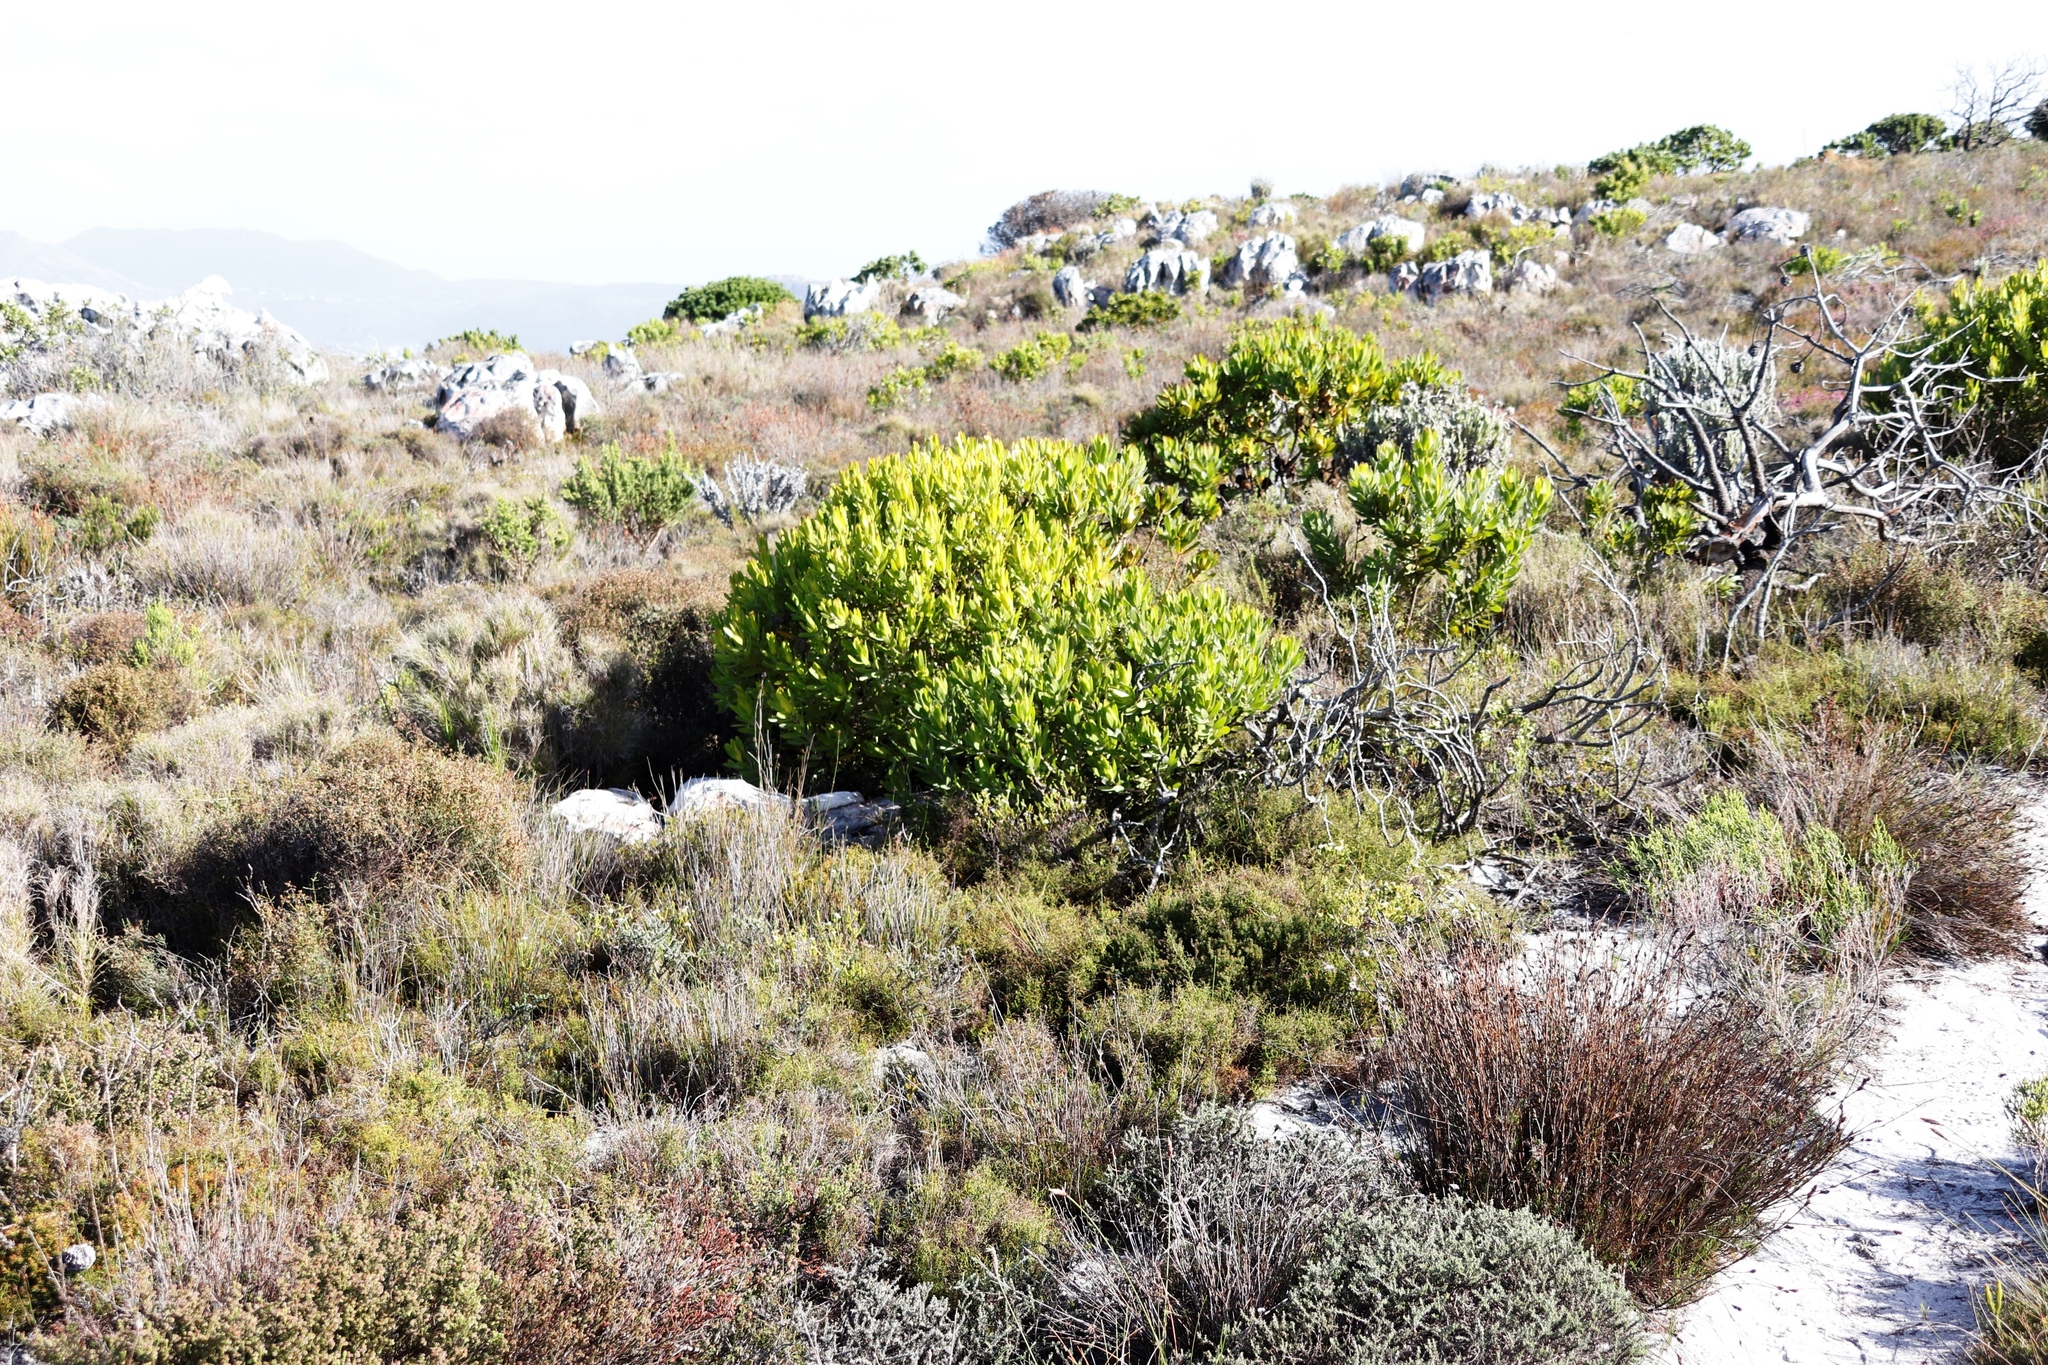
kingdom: Plantae
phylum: Tracheophyta
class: Magnoliopsida
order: Proteales
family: Proteaceae
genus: Leucadendron
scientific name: Leucadendron laureolum
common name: Golden sunshinebush
